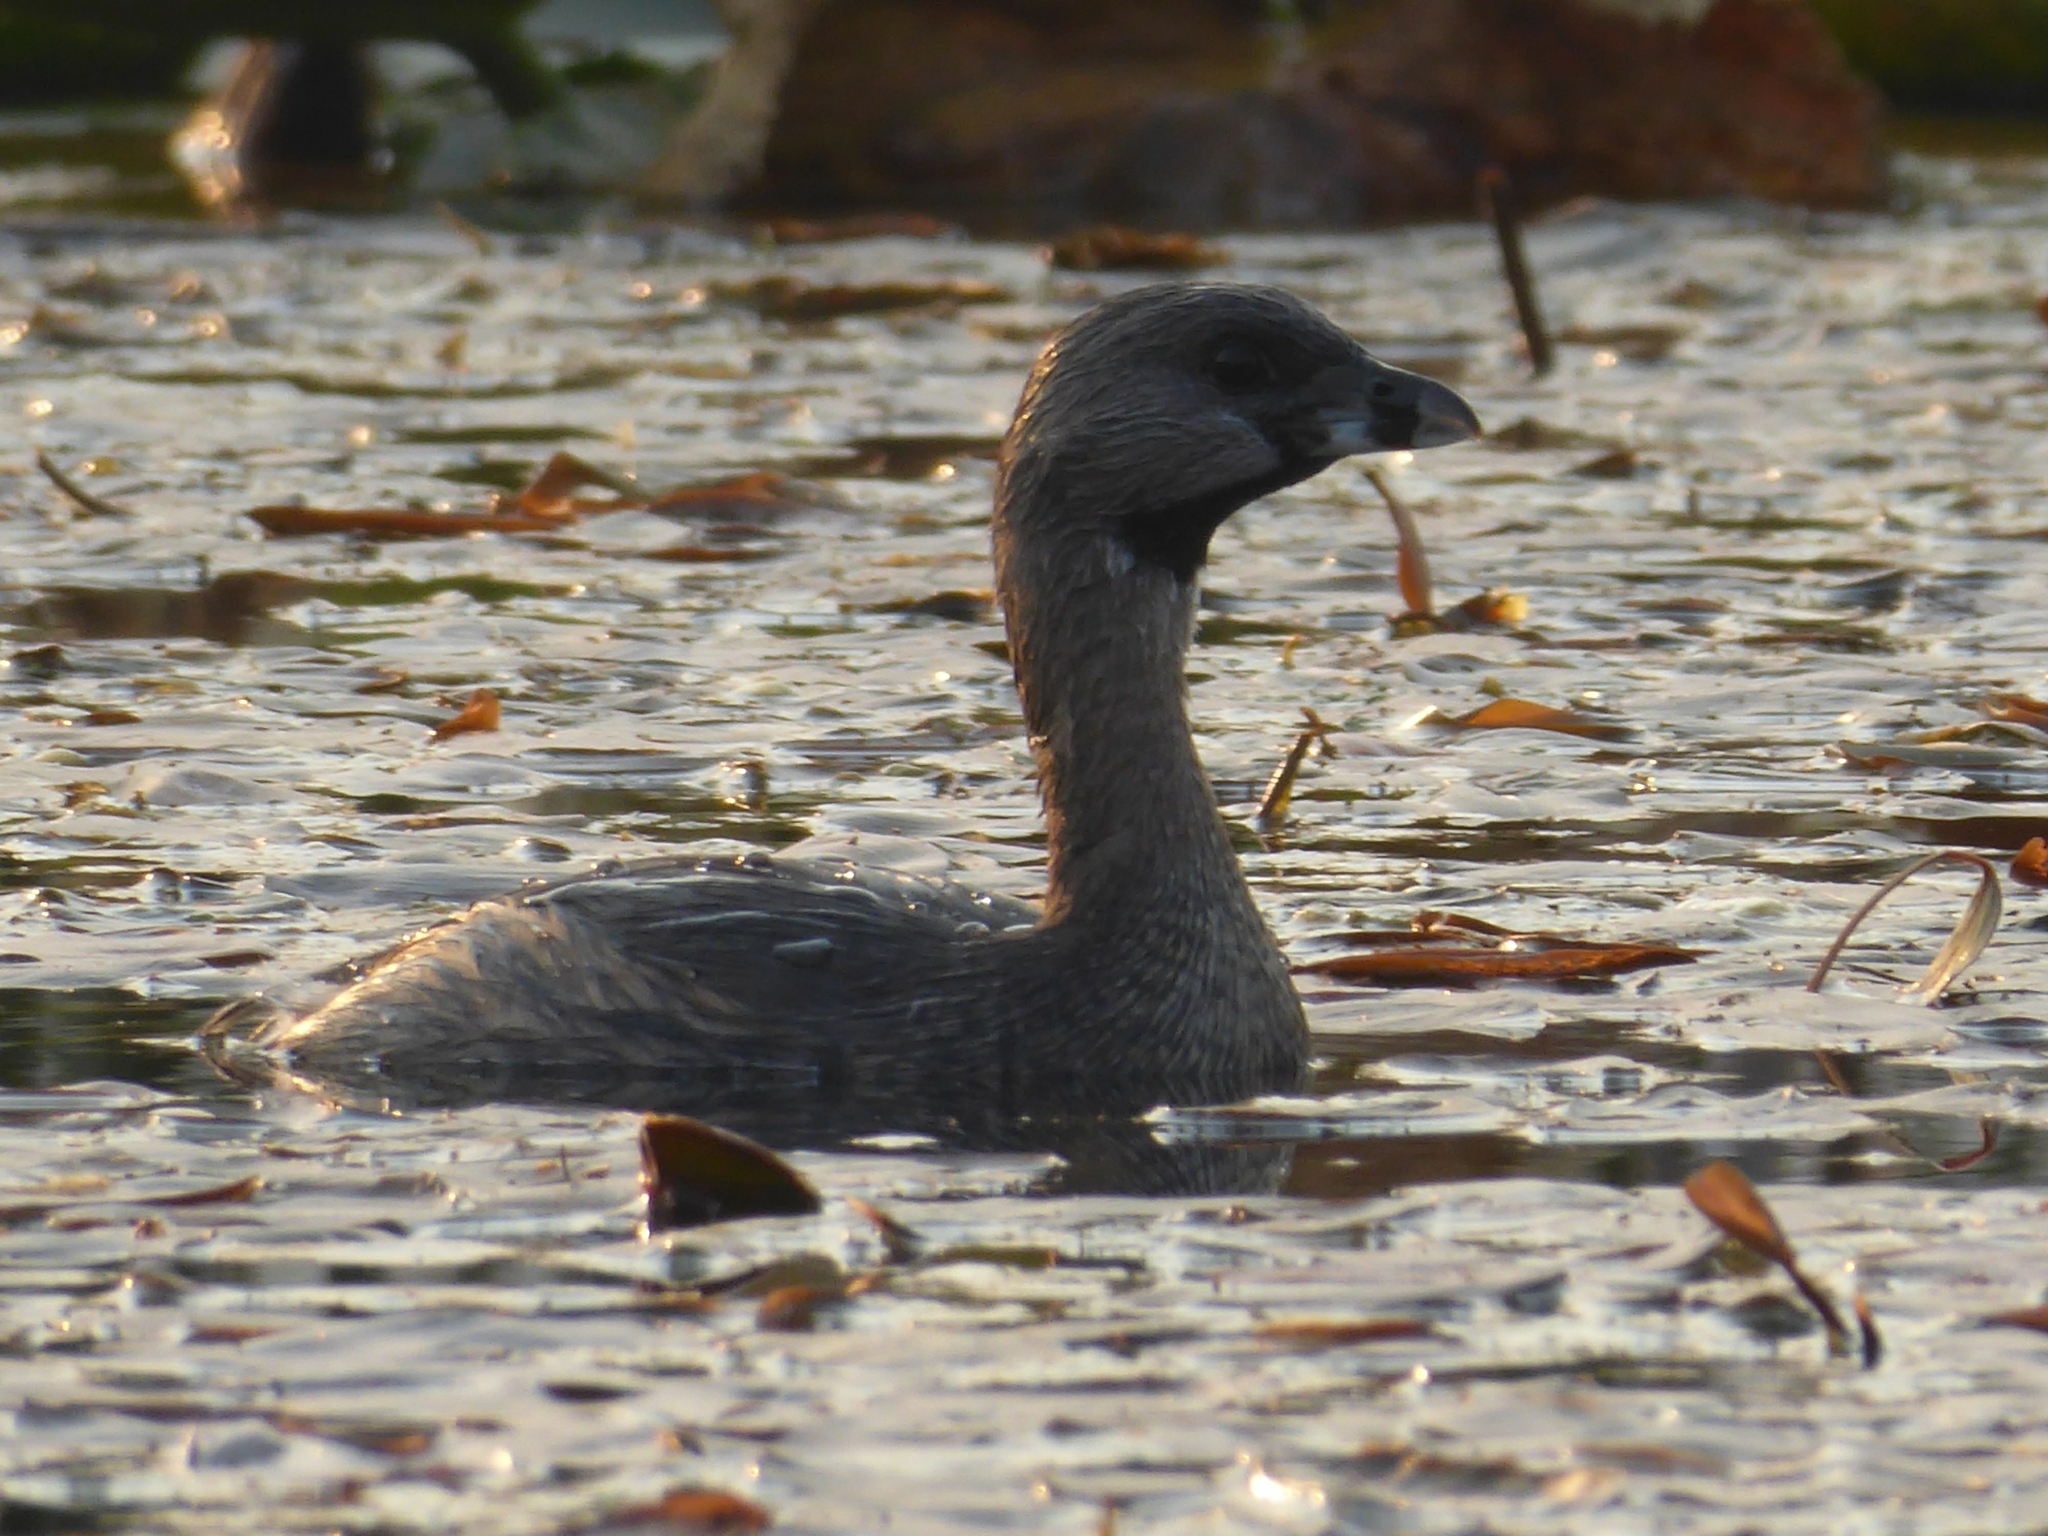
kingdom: Animalia
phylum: Chordata
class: Aves
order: Podicipediformes
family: Podicipedidae
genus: Podilymbus
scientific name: Podilymbus podiceps
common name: Pied-billed grebe
